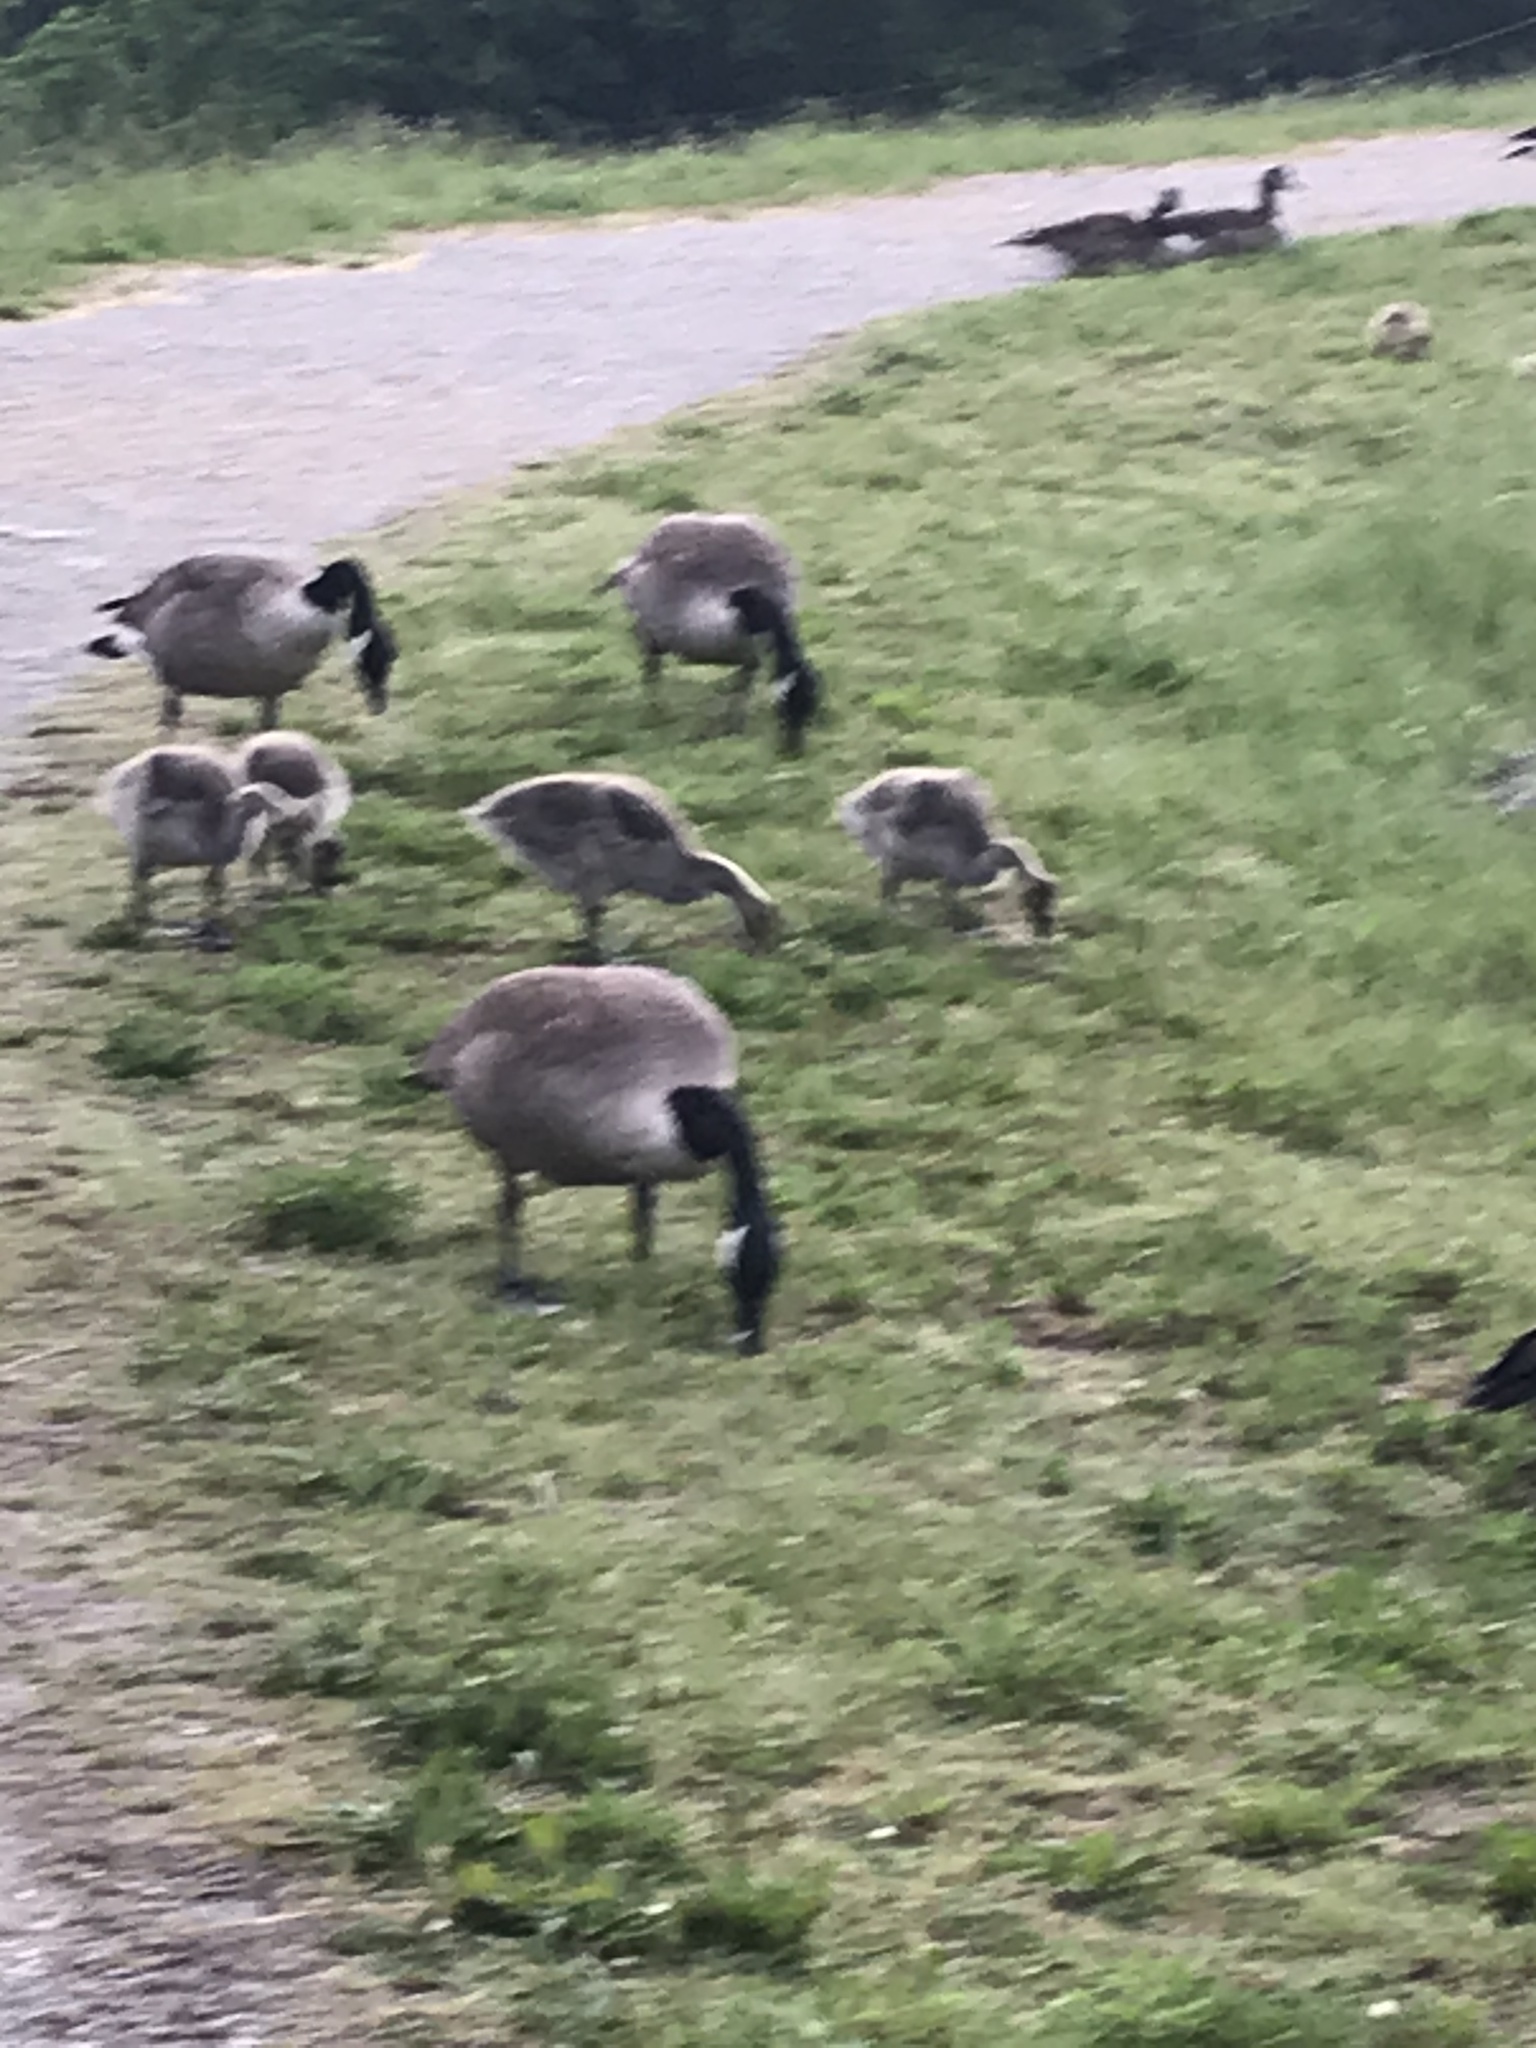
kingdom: Animalia
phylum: Chordata
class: Aves
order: Anseriformes
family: Anatidae
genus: Branta
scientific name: Branta canadensis
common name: Canada goose
